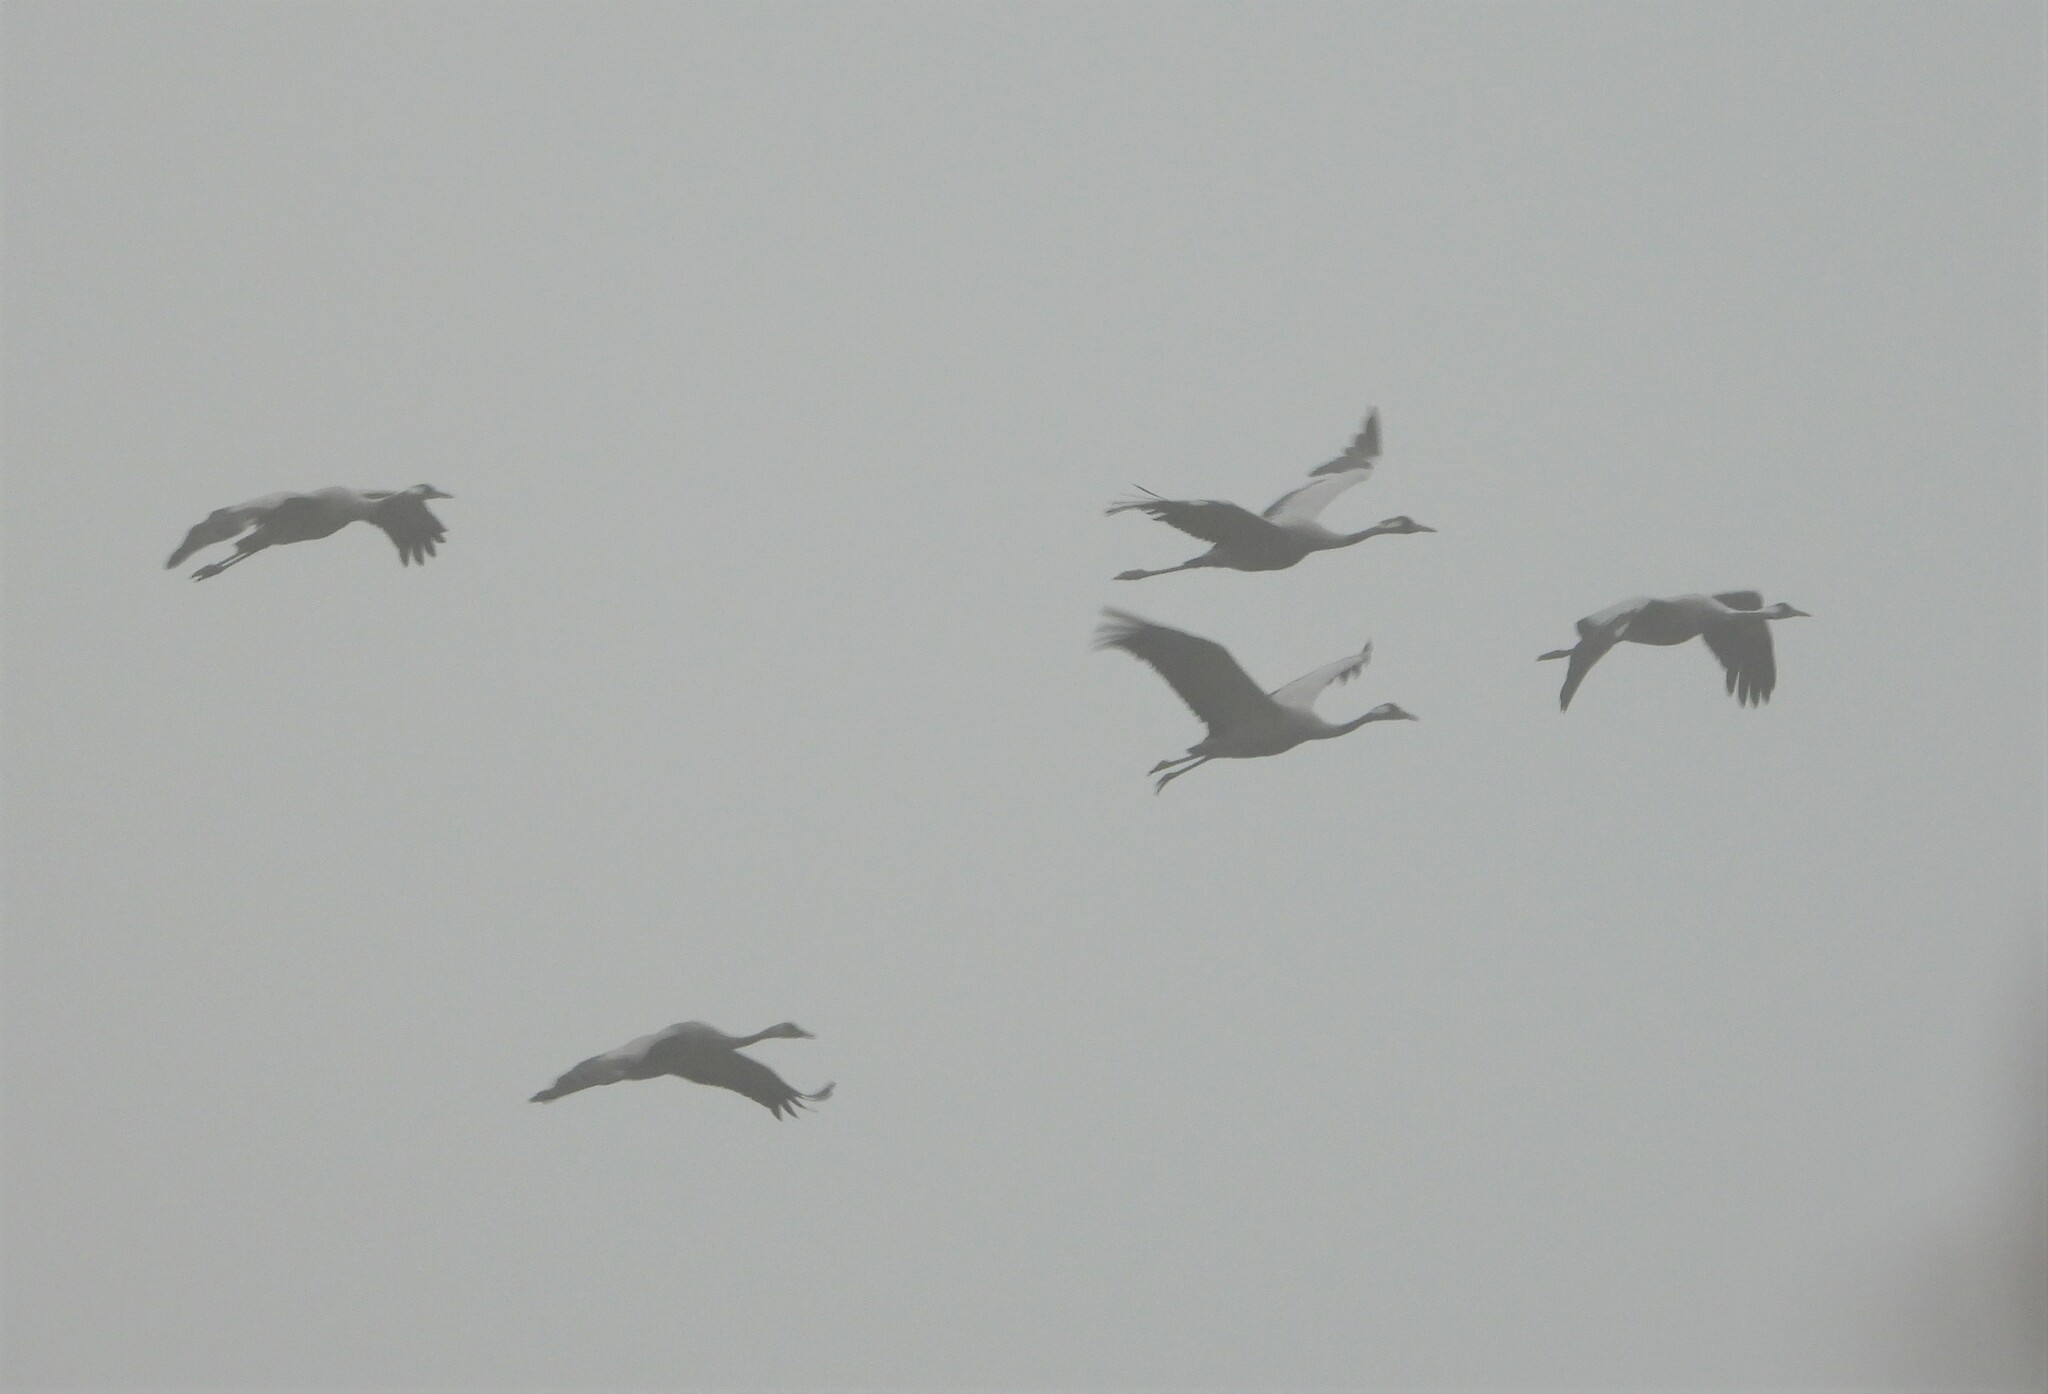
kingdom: Animalia
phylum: Chordata
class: Aves
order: Gruiformes
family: Gruidae
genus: Grus
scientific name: Grus grus
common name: Common crane
